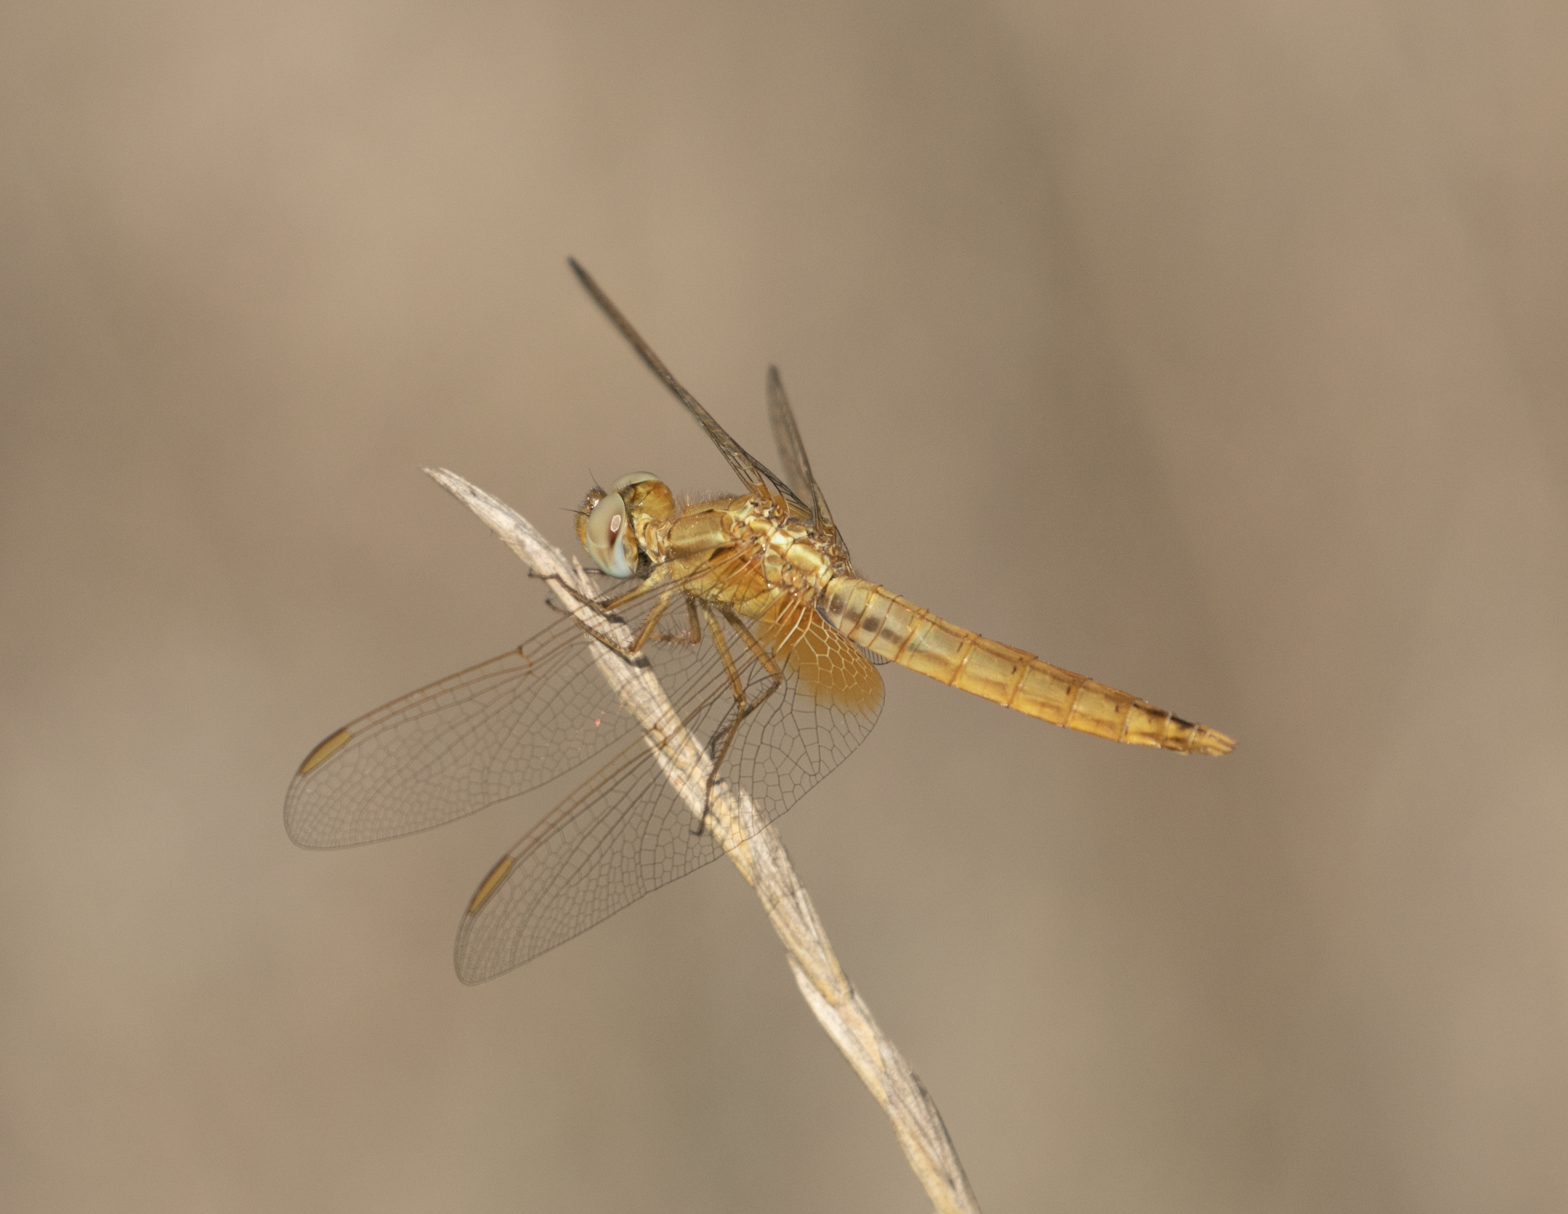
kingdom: Animalia
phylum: Arthropoda
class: Insecta
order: Odonata
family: Libellulidae
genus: Crocothemis
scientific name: Crocothemis erythraea
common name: Scarlet dragonfly
